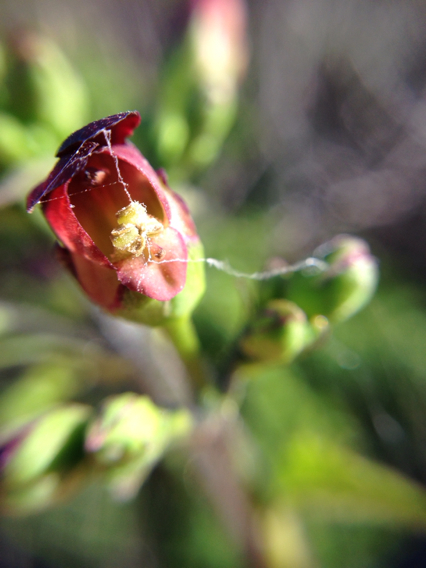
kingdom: Plantae
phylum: Tracheophyta
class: Magnoliopsida
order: Lamiales
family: Scrophulariaceae
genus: Scrophularia
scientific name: Scrophularia californica
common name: California figwort
